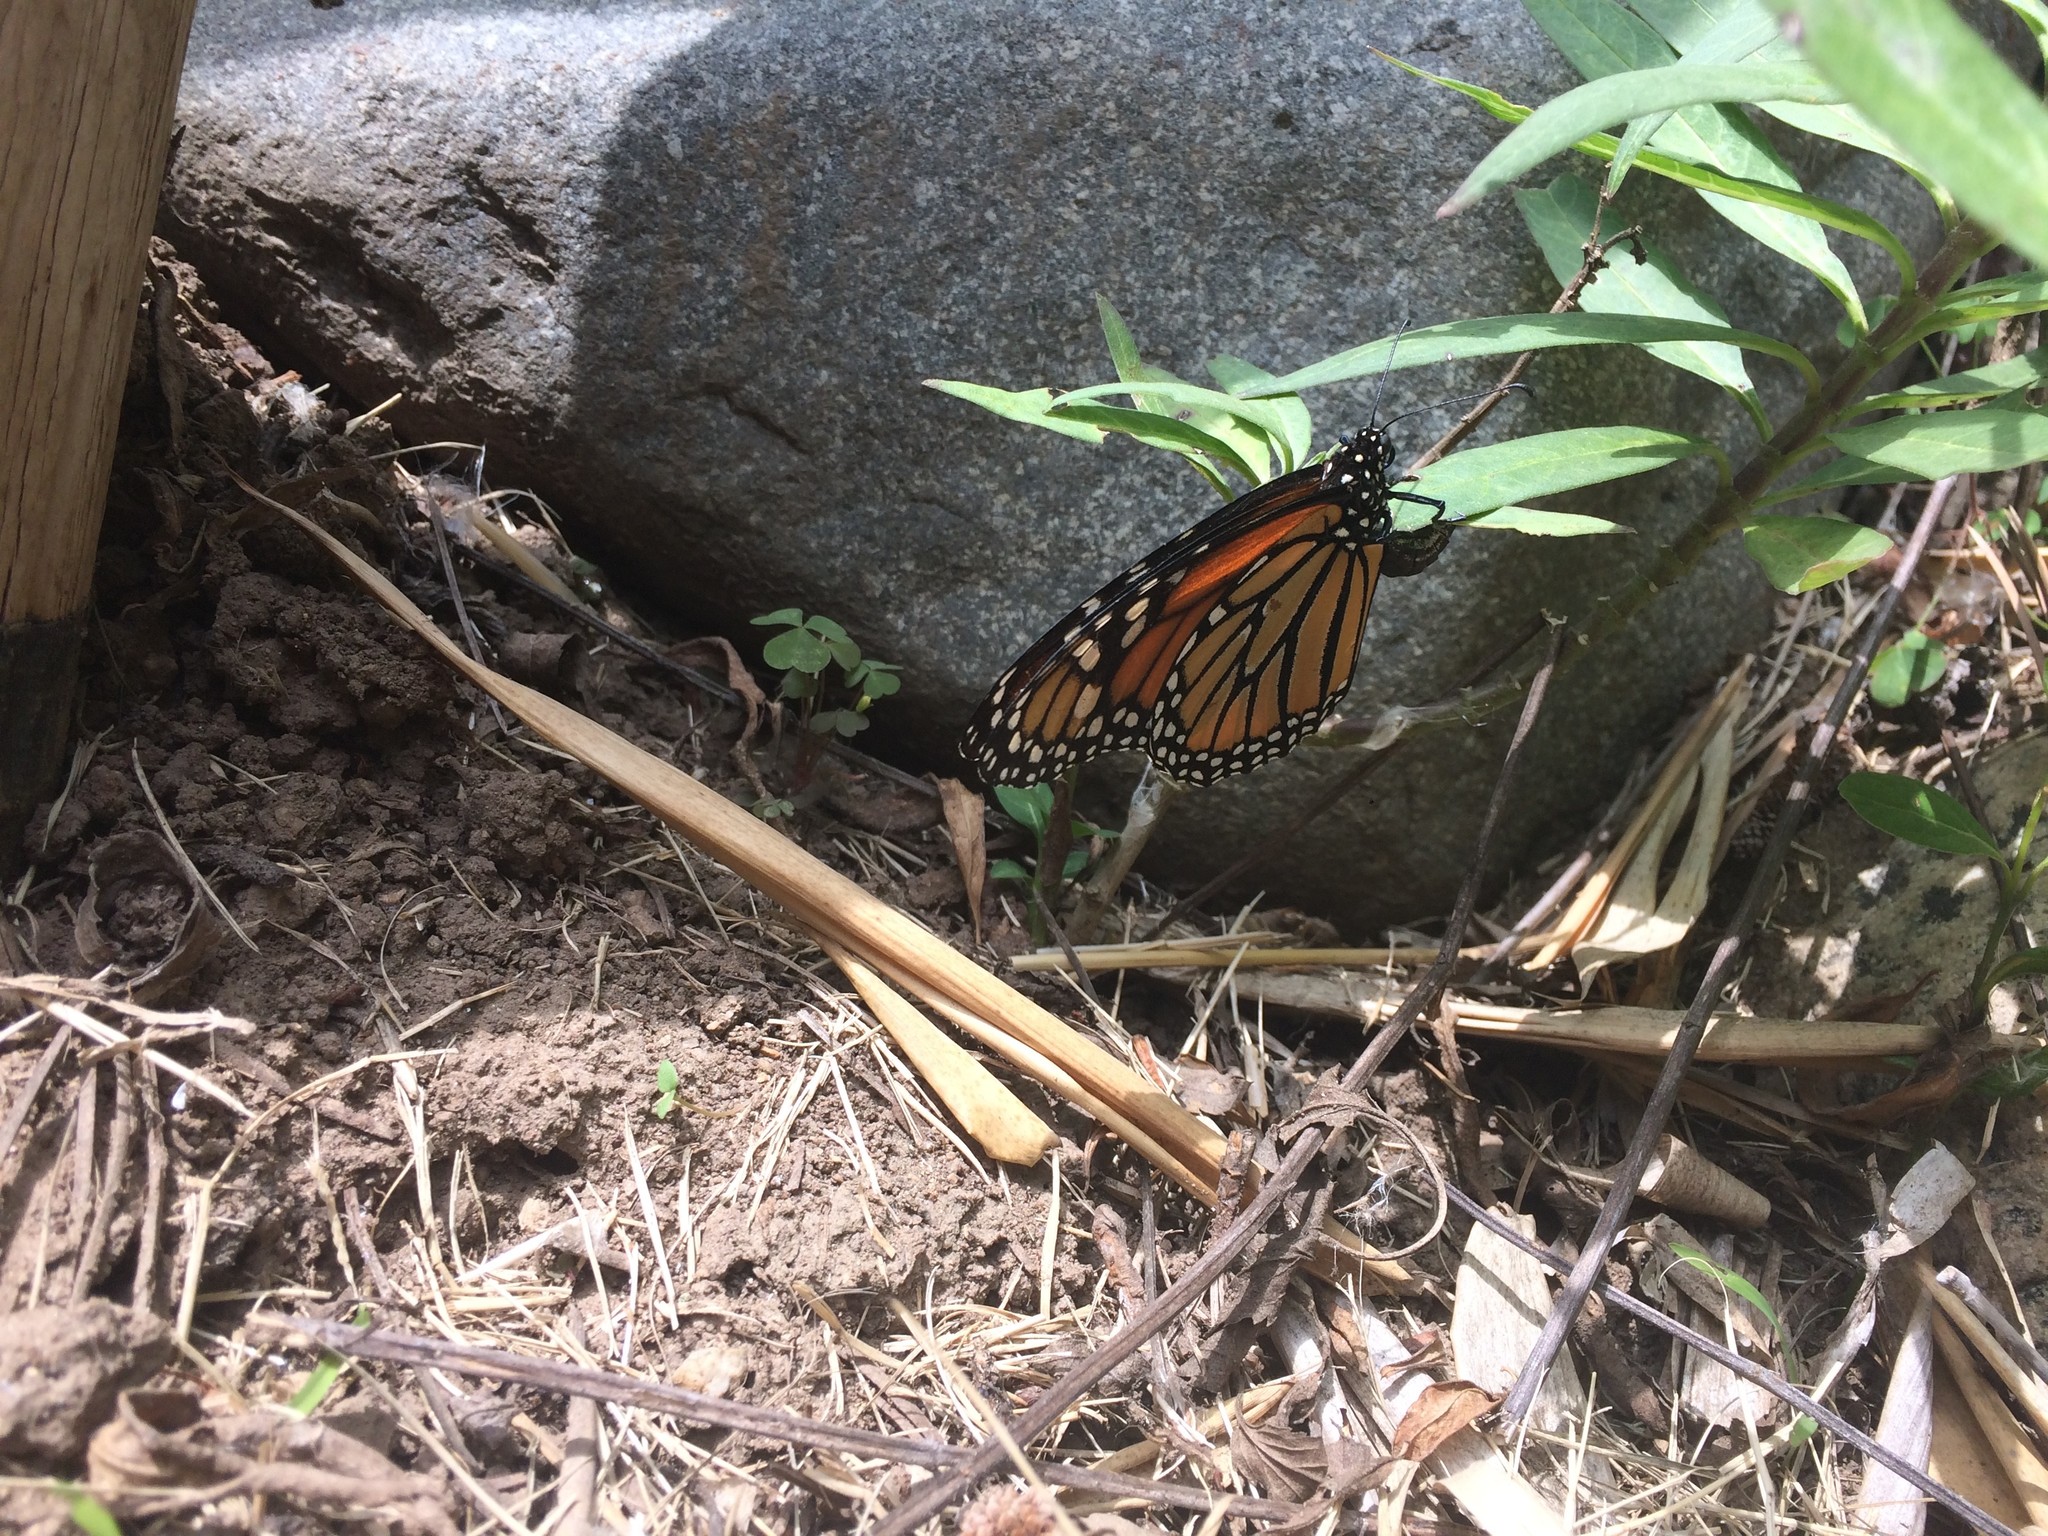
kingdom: Animalia
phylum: Arthropoda
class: Insecta
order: Lepidoptera
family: Nymphalidae
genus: Danaus
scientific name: Danaus plexippus
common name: Monarch
